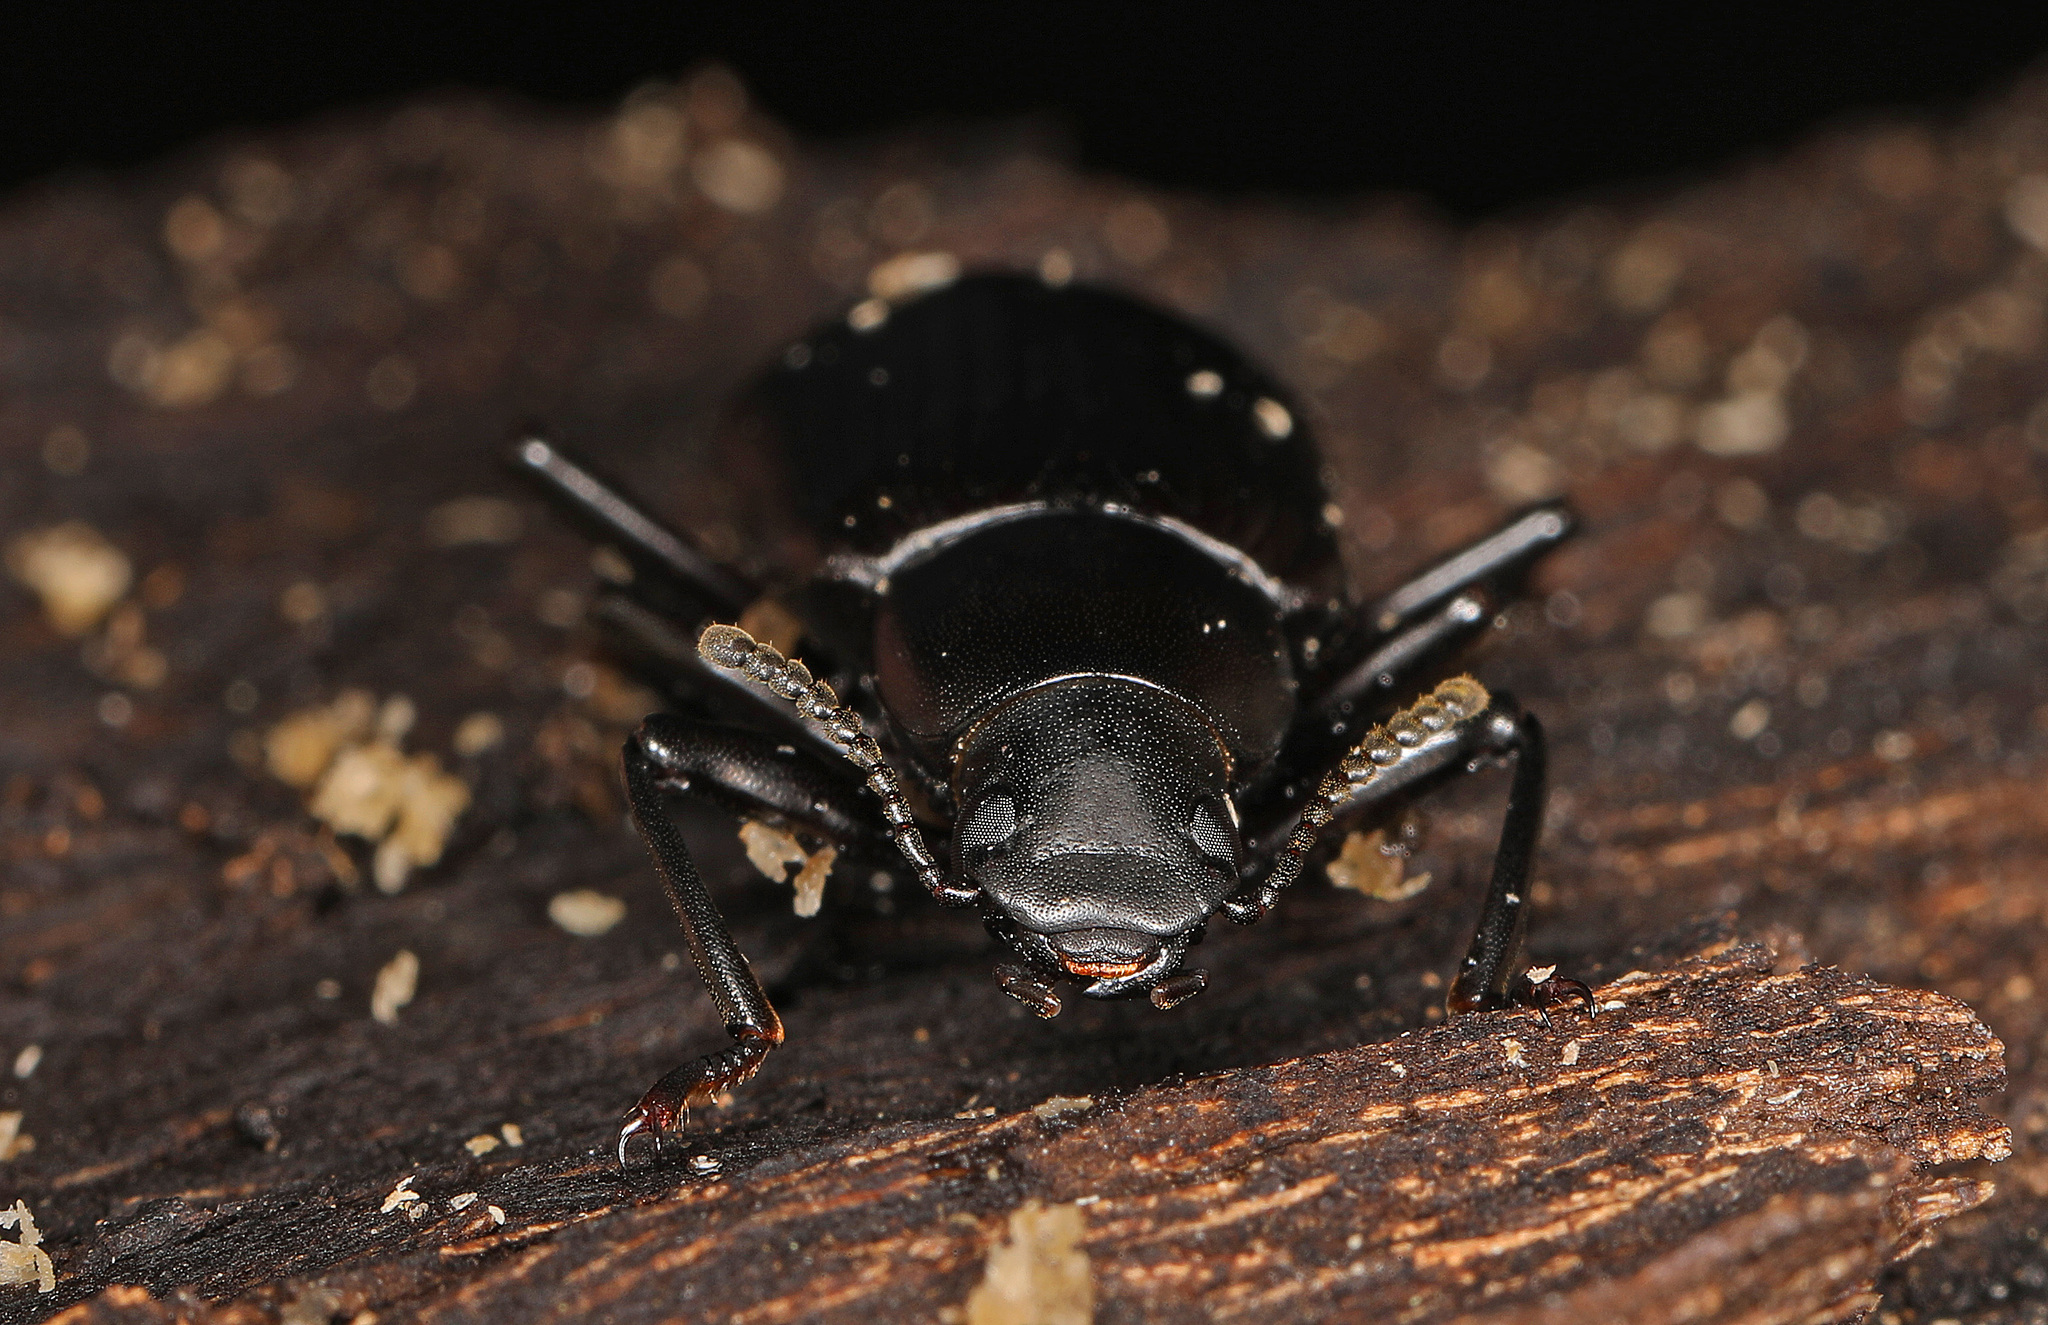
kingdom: Animalia
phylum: Arthropoda
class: Insecta
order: Coleoptera
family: Tenebrionidae
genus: Alobates
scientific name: Alobates
